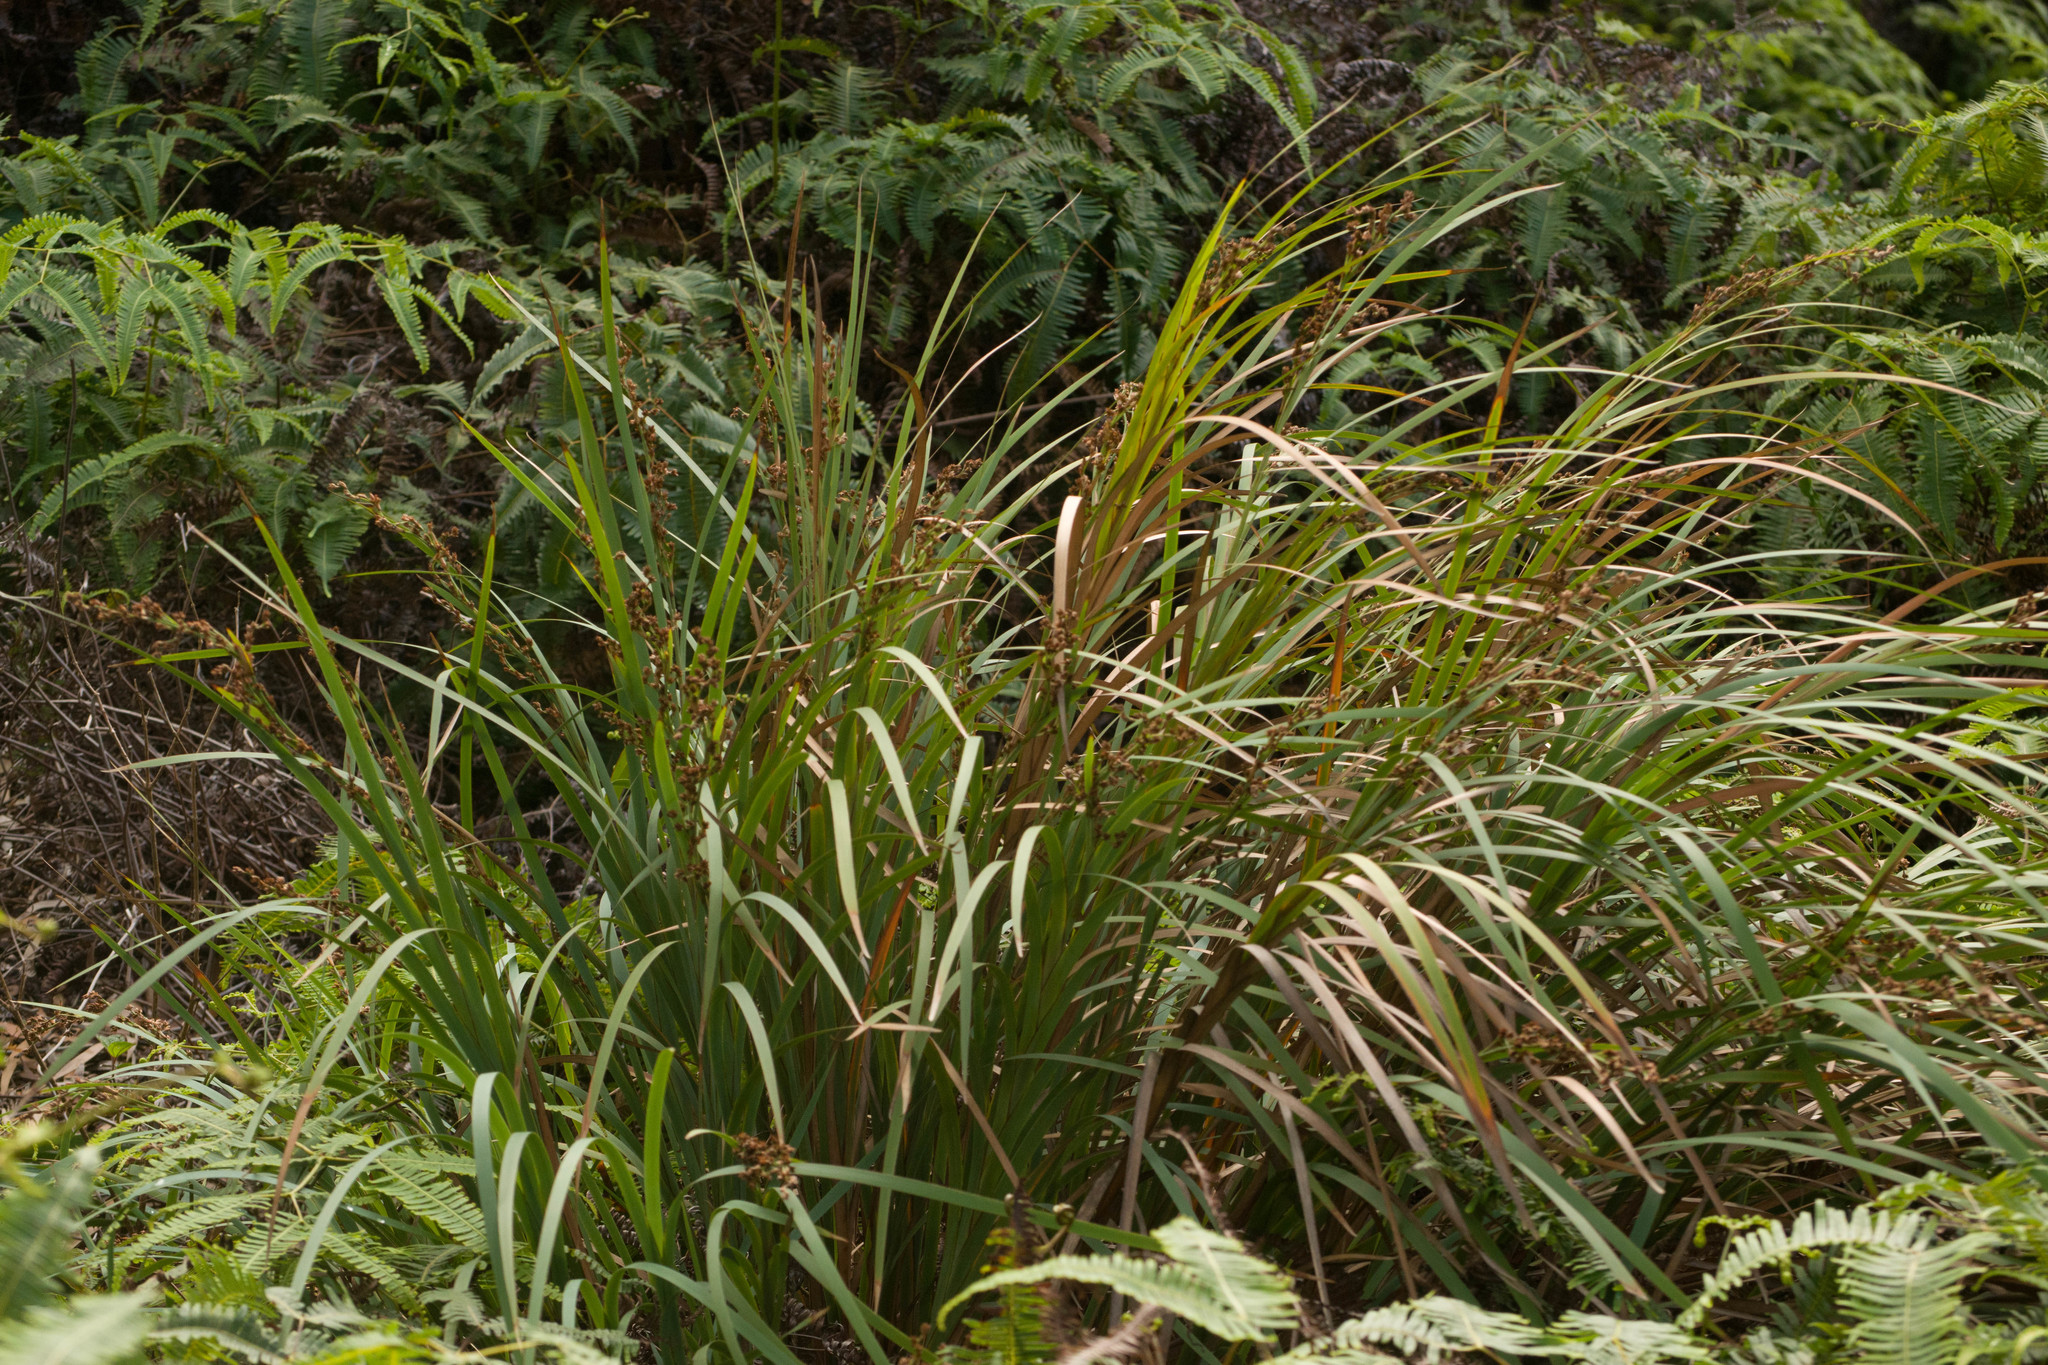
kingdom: Plantae
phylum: Tracheophyta
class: Liliopsida
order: Poales
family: Cyperaceae
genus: Machaerina
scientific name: Machaerina mariscoides
